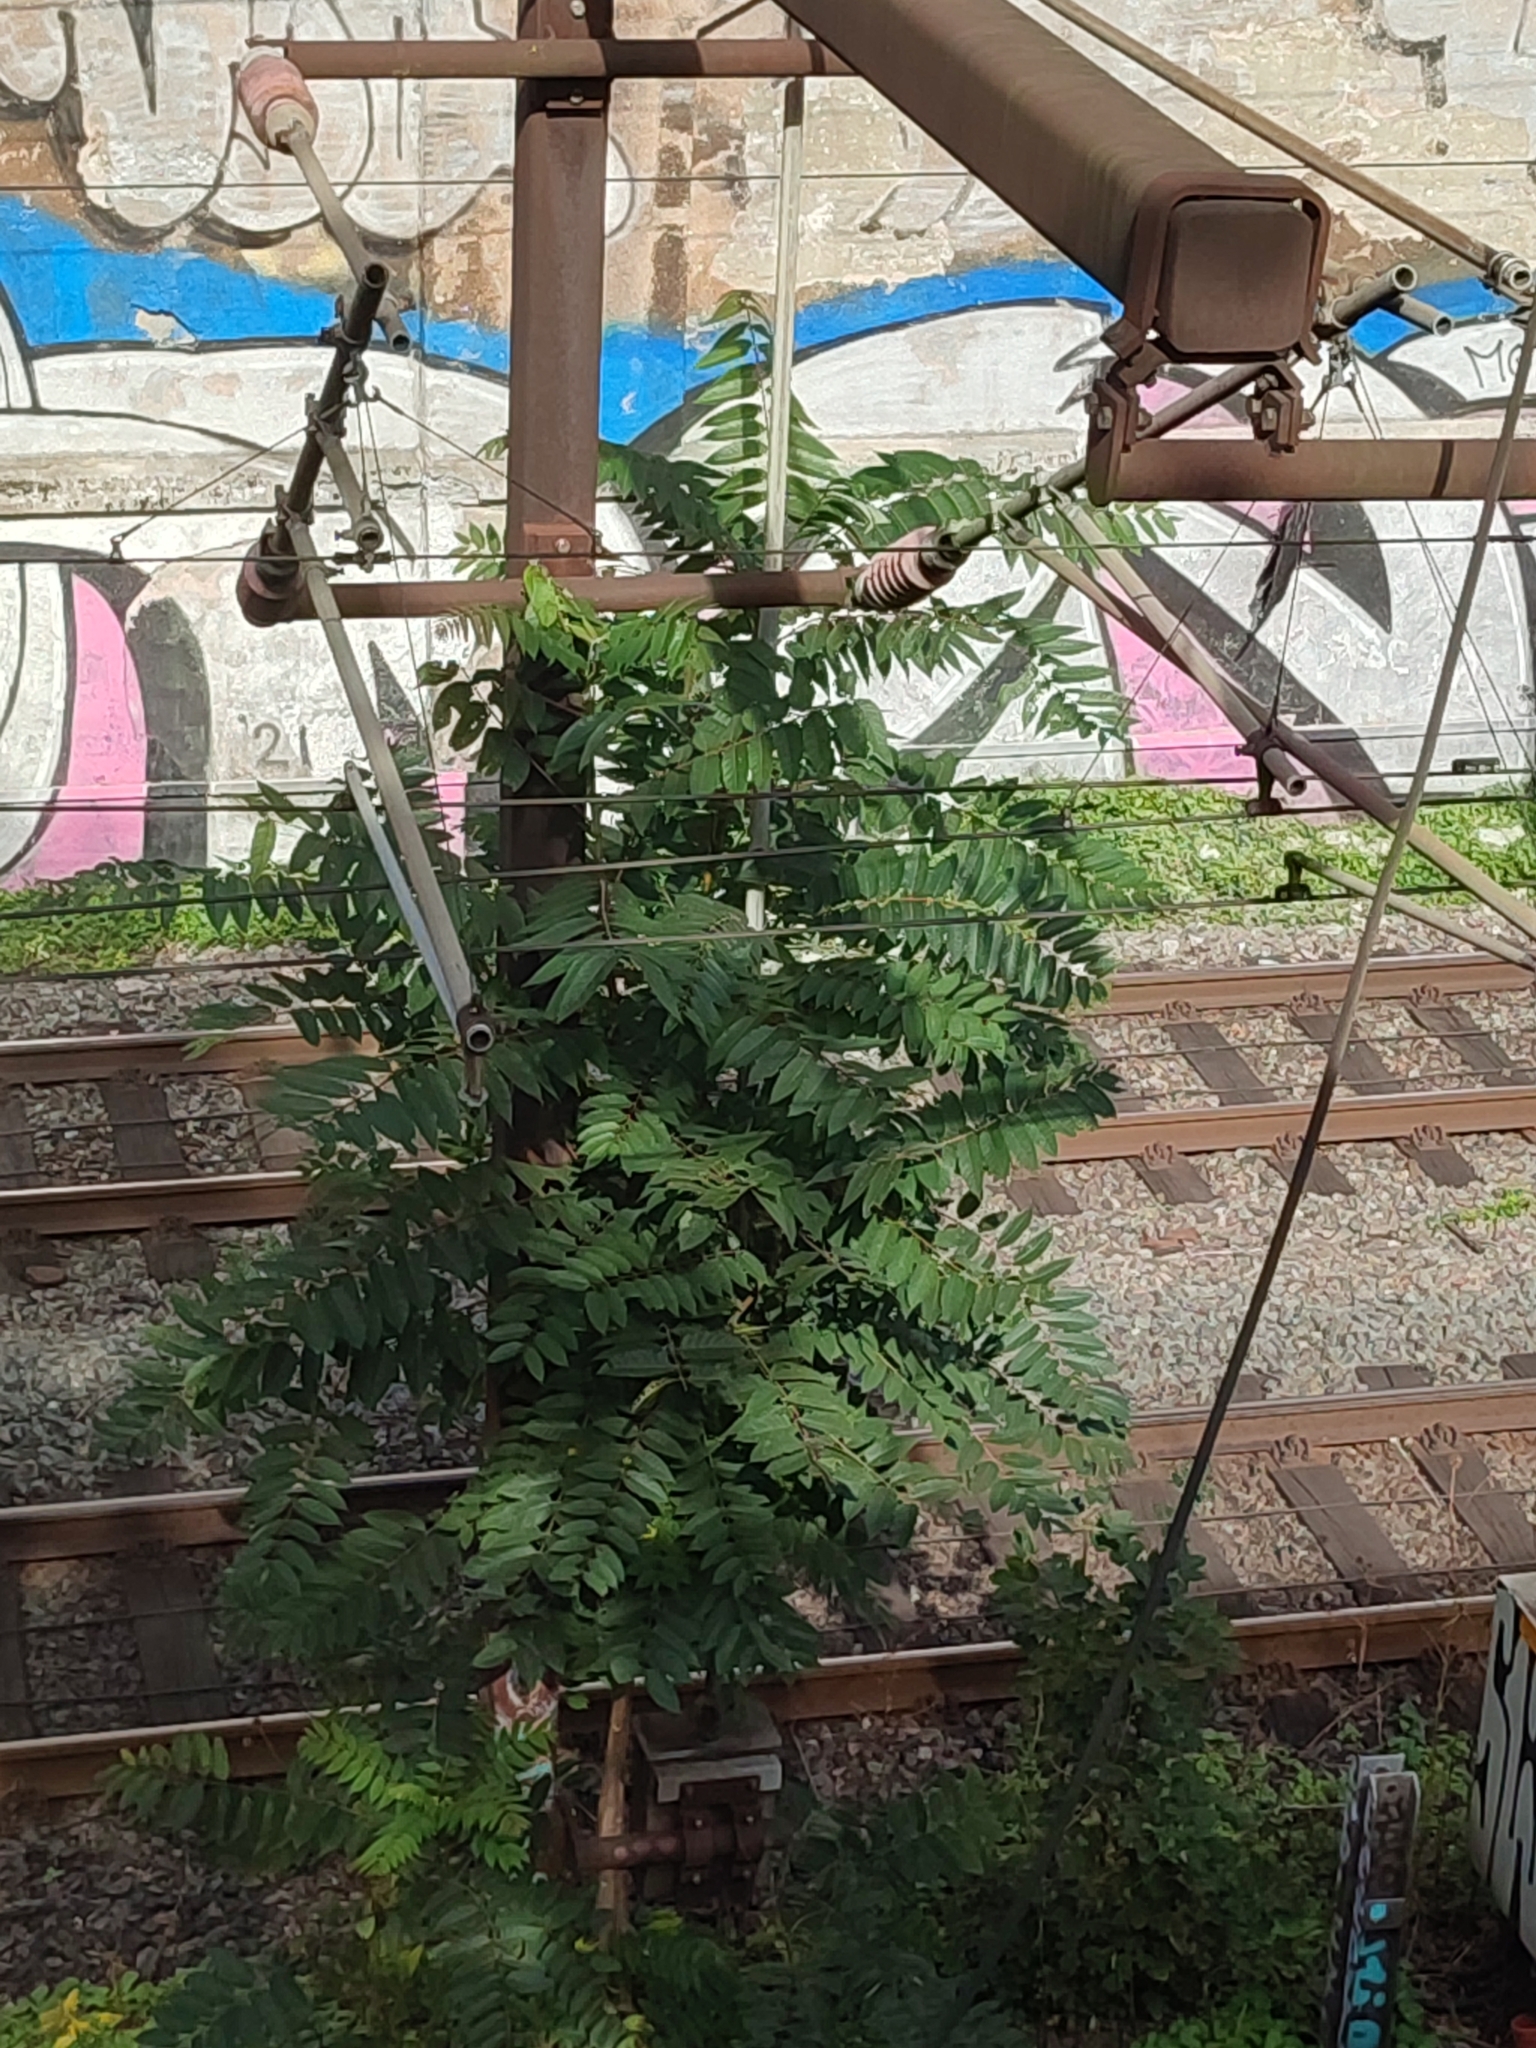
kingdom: Plantae
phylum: Tracheophyta
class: Magnoliopsida
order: Sapindales
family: Simaroubaceae
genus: Ailanthus
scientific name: Ailanthus altissima
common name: Tree-of-heaven
